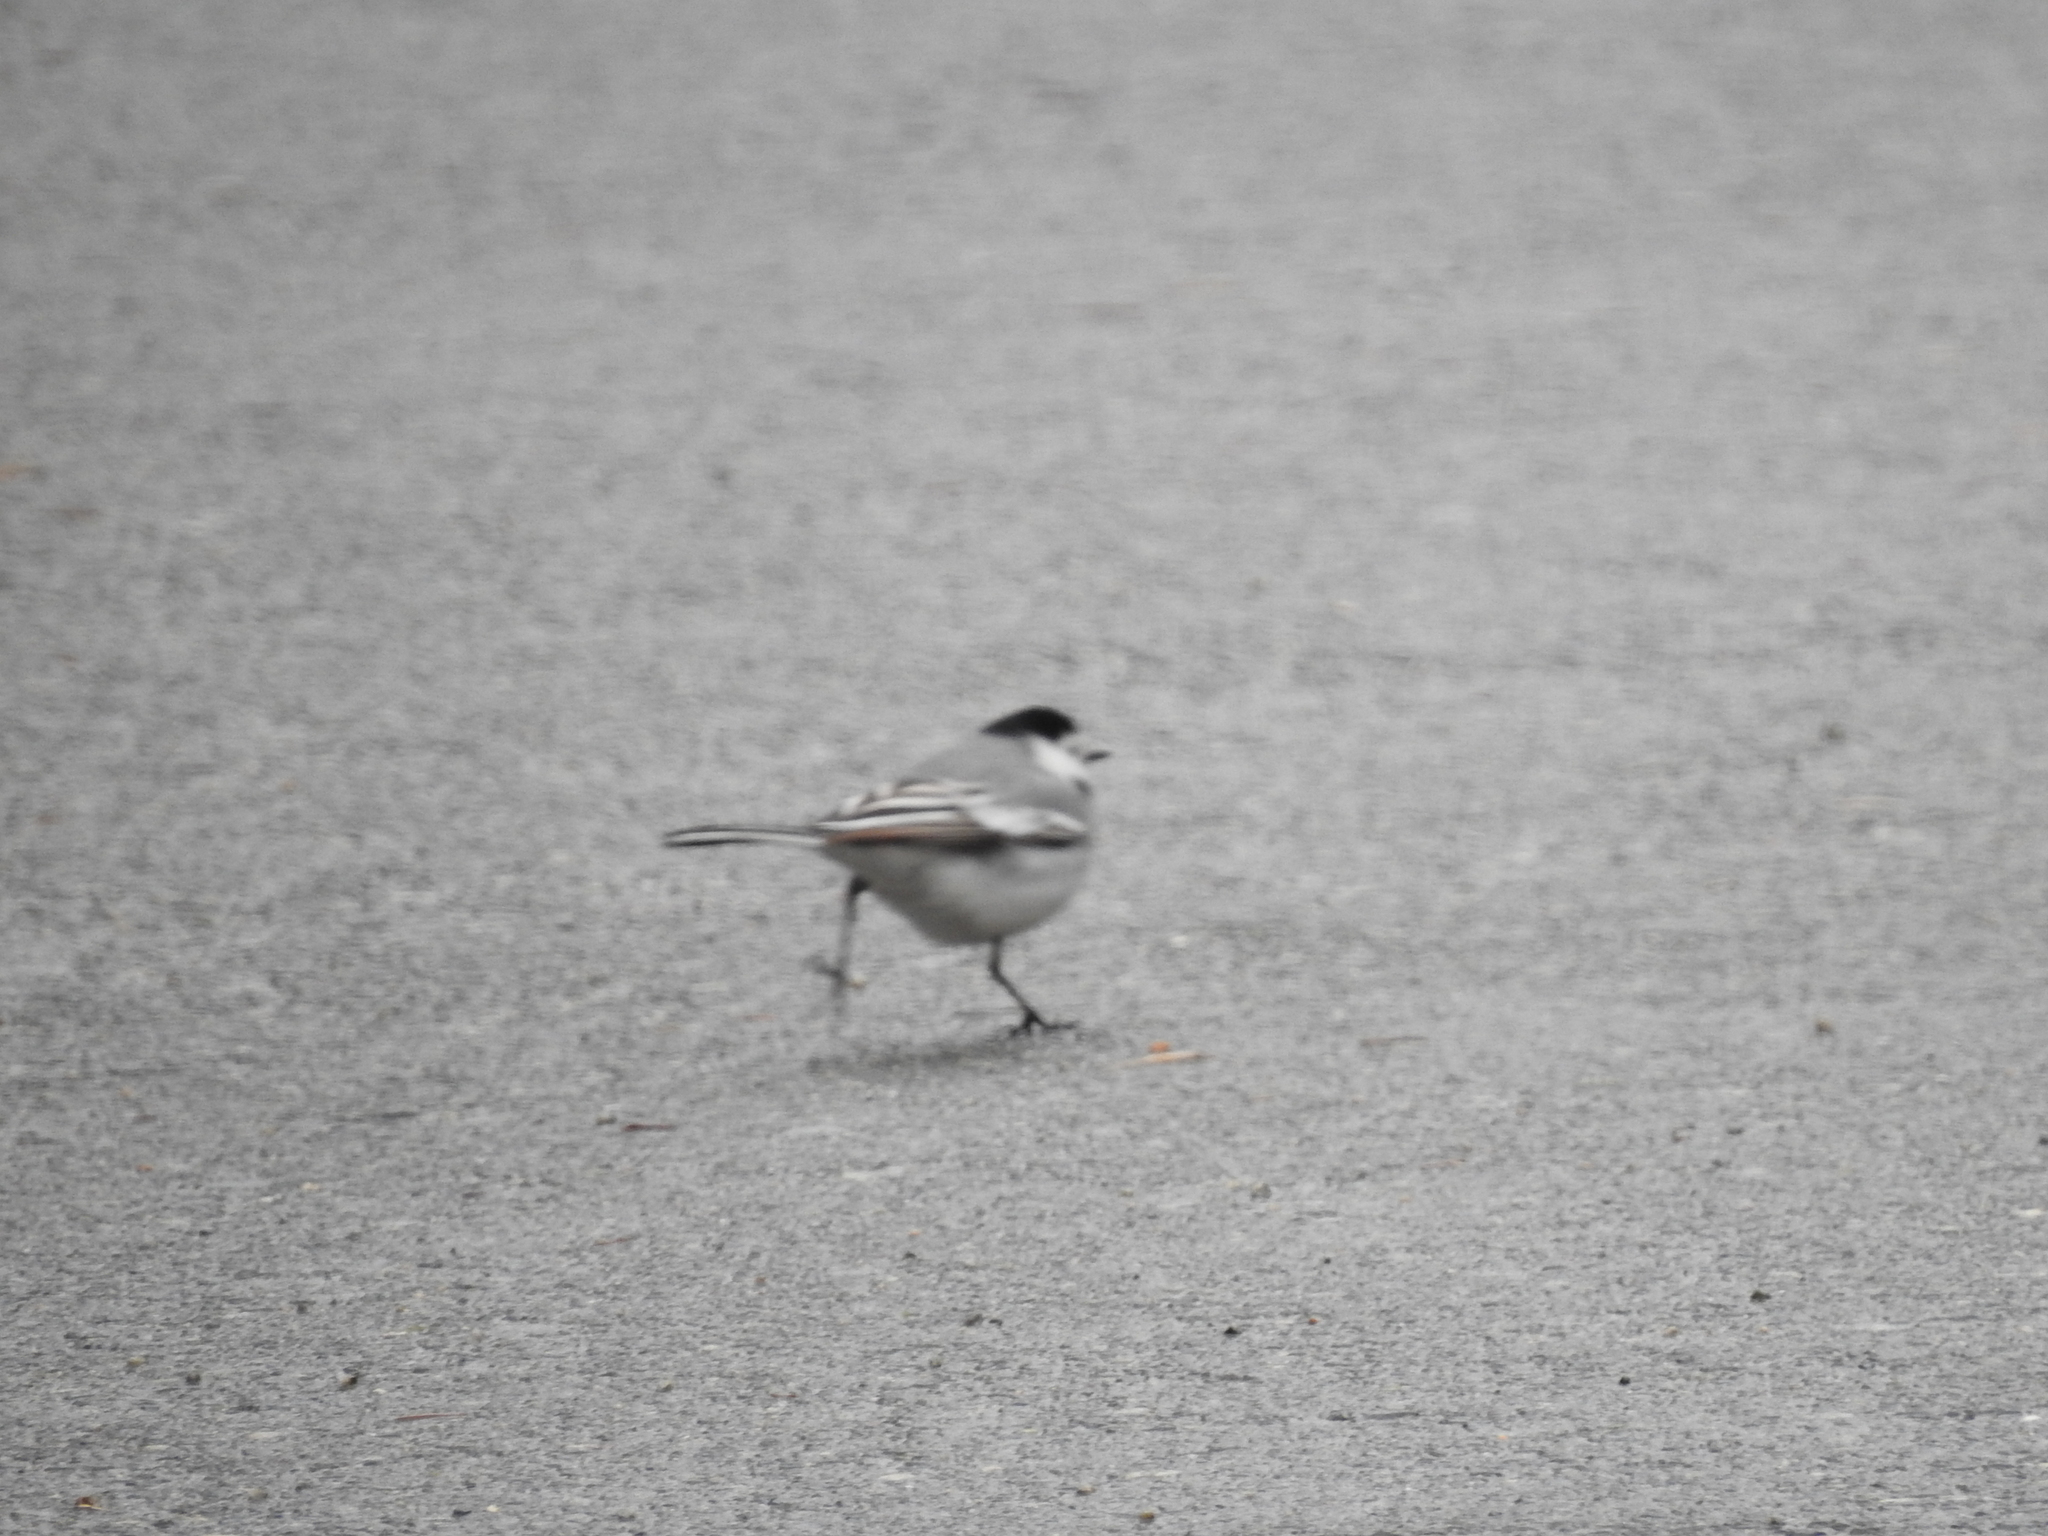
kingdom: Animalia
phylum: Chordata
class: Aves
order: Passeriformes
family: Motacillidae
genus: Motacilla
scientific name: Motacilla alba
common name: White wagtail
